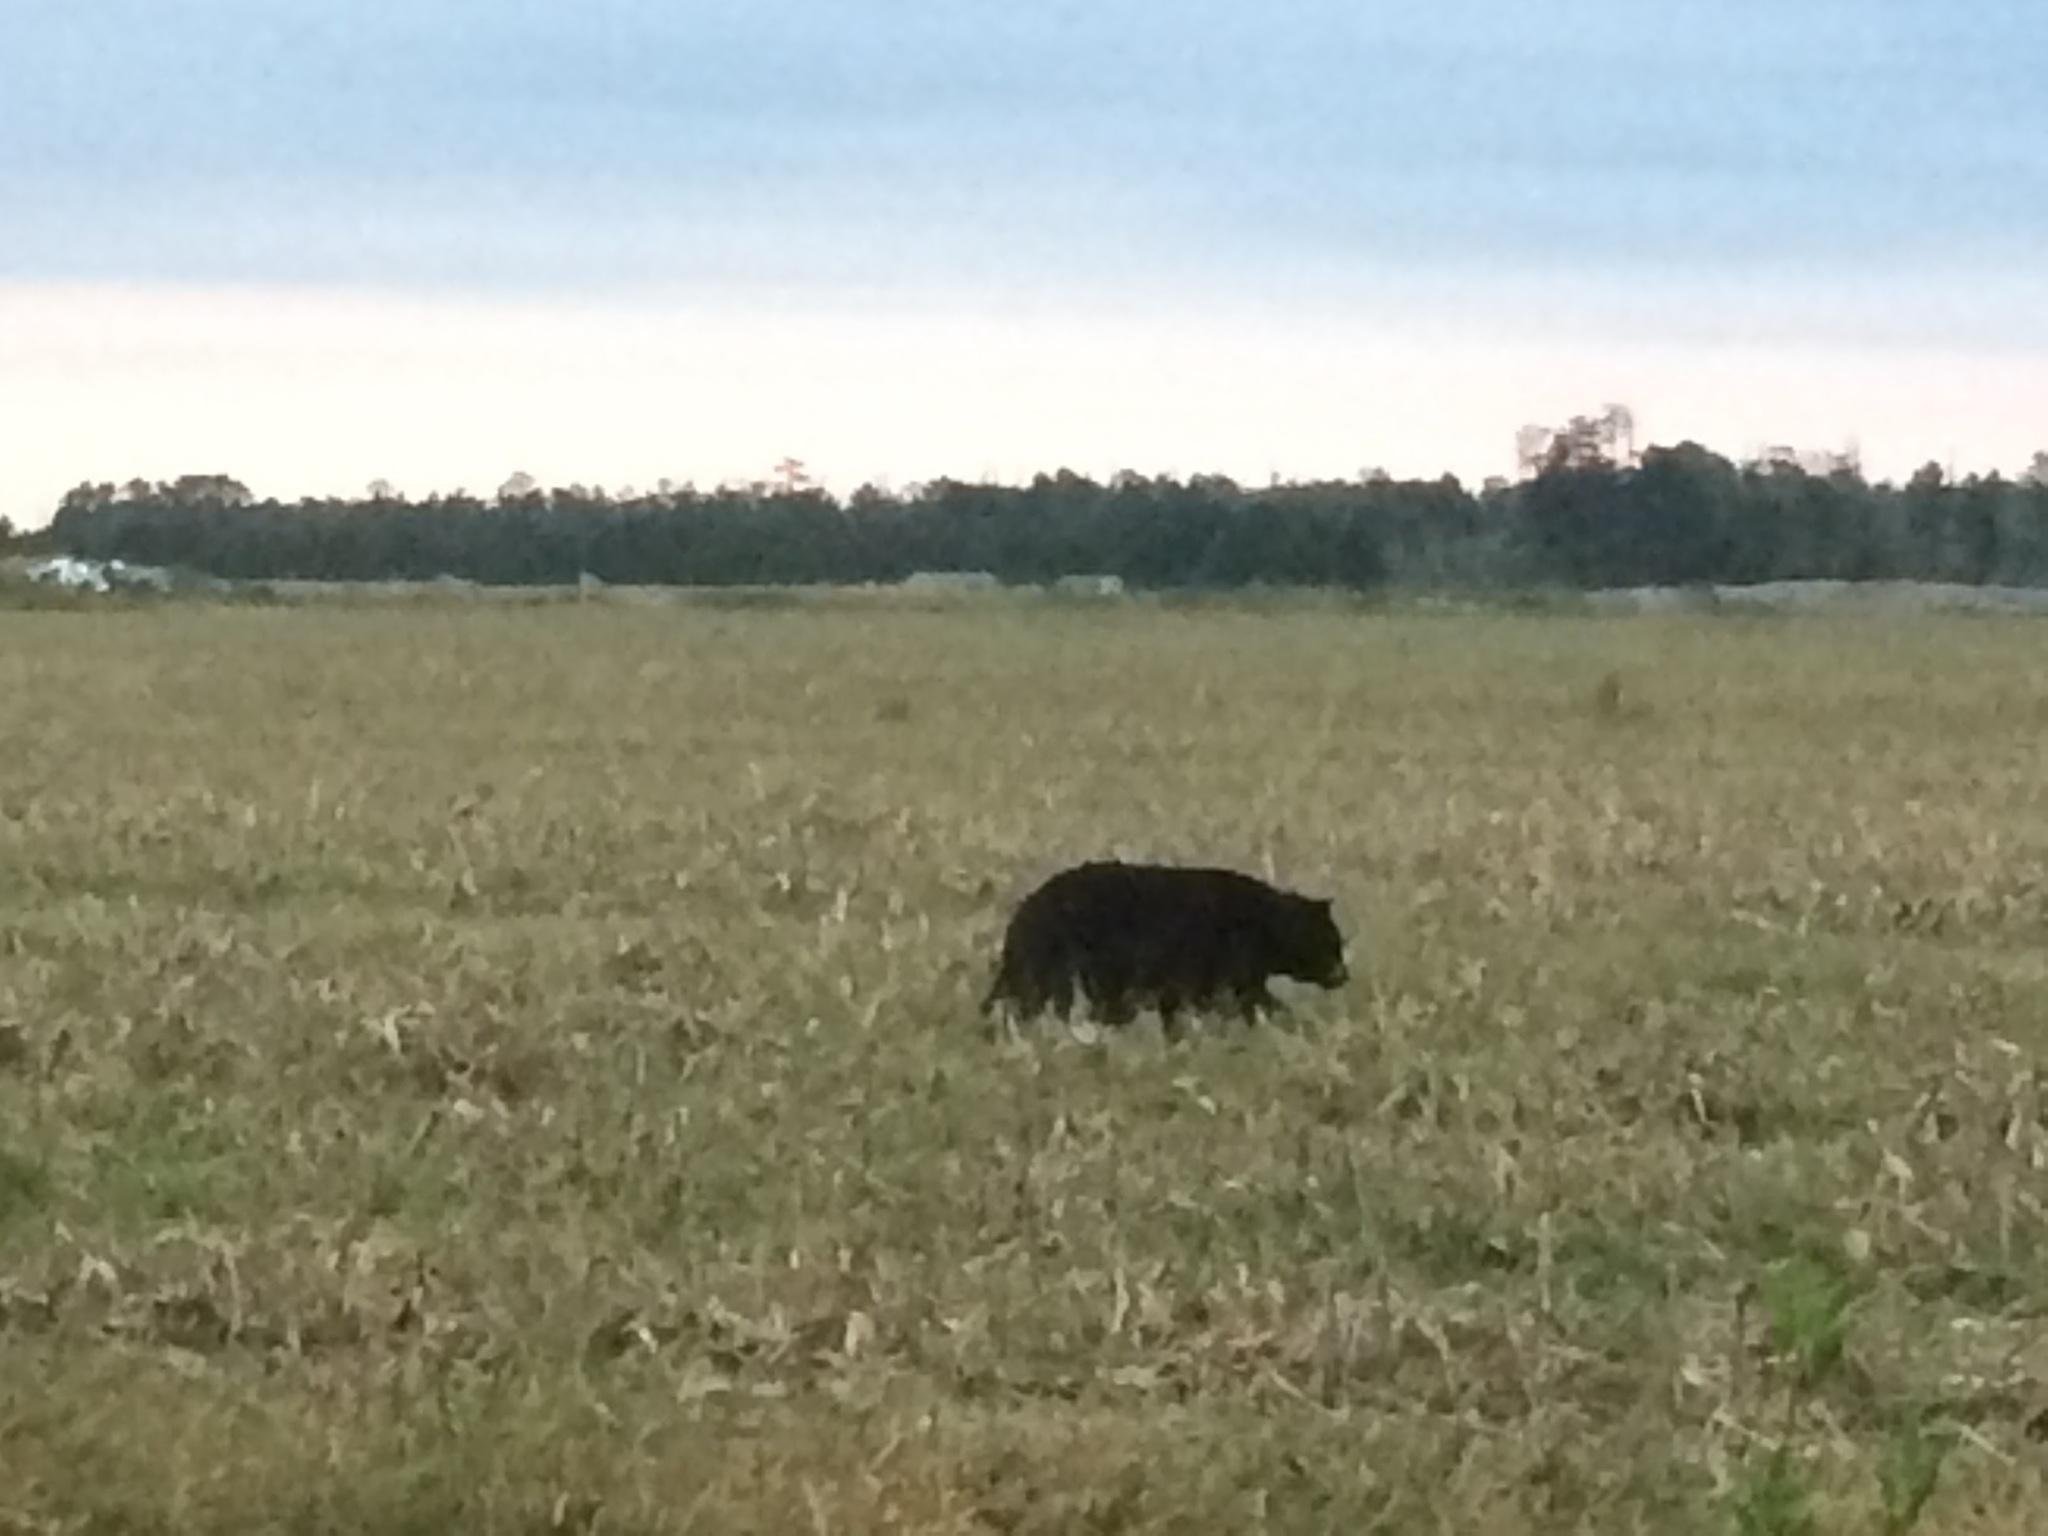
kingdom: Animalia
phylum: Chordata
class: Mammalia
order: Carnivora
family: Ursidae
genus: Ursus
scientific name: Ursus americanus
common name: American black bear
